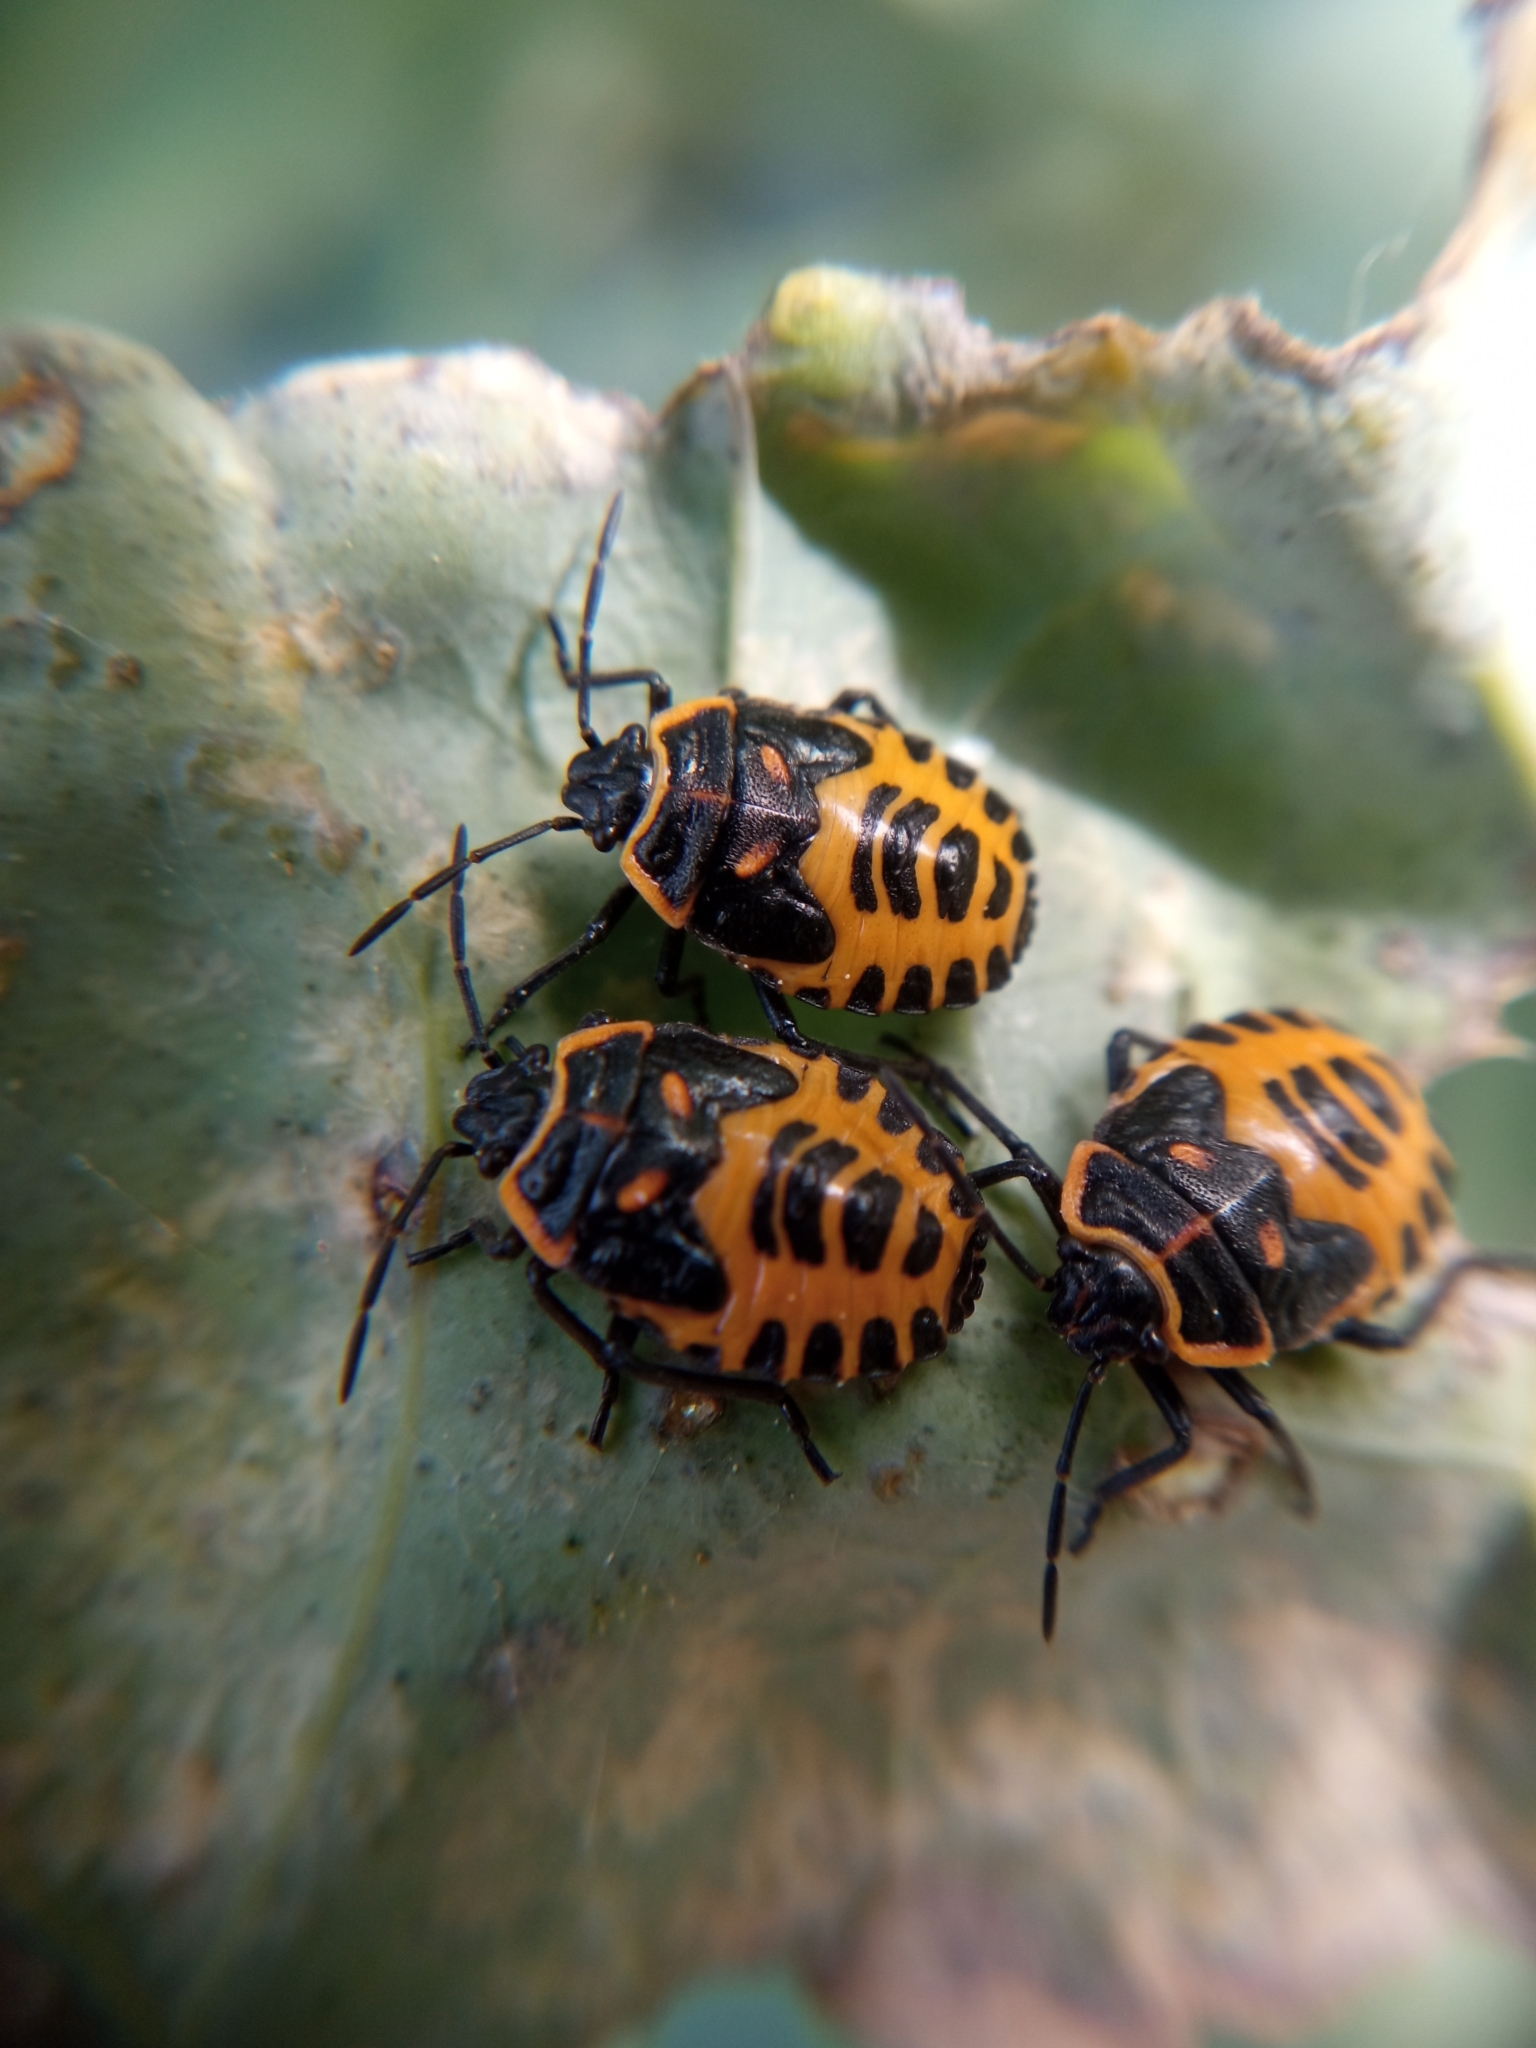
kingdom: Animalia
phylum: Arthropoda
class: Insecta
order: Hemiptera
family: Pentatomidae
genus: Eurydema
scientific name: Eurydema ventralis
